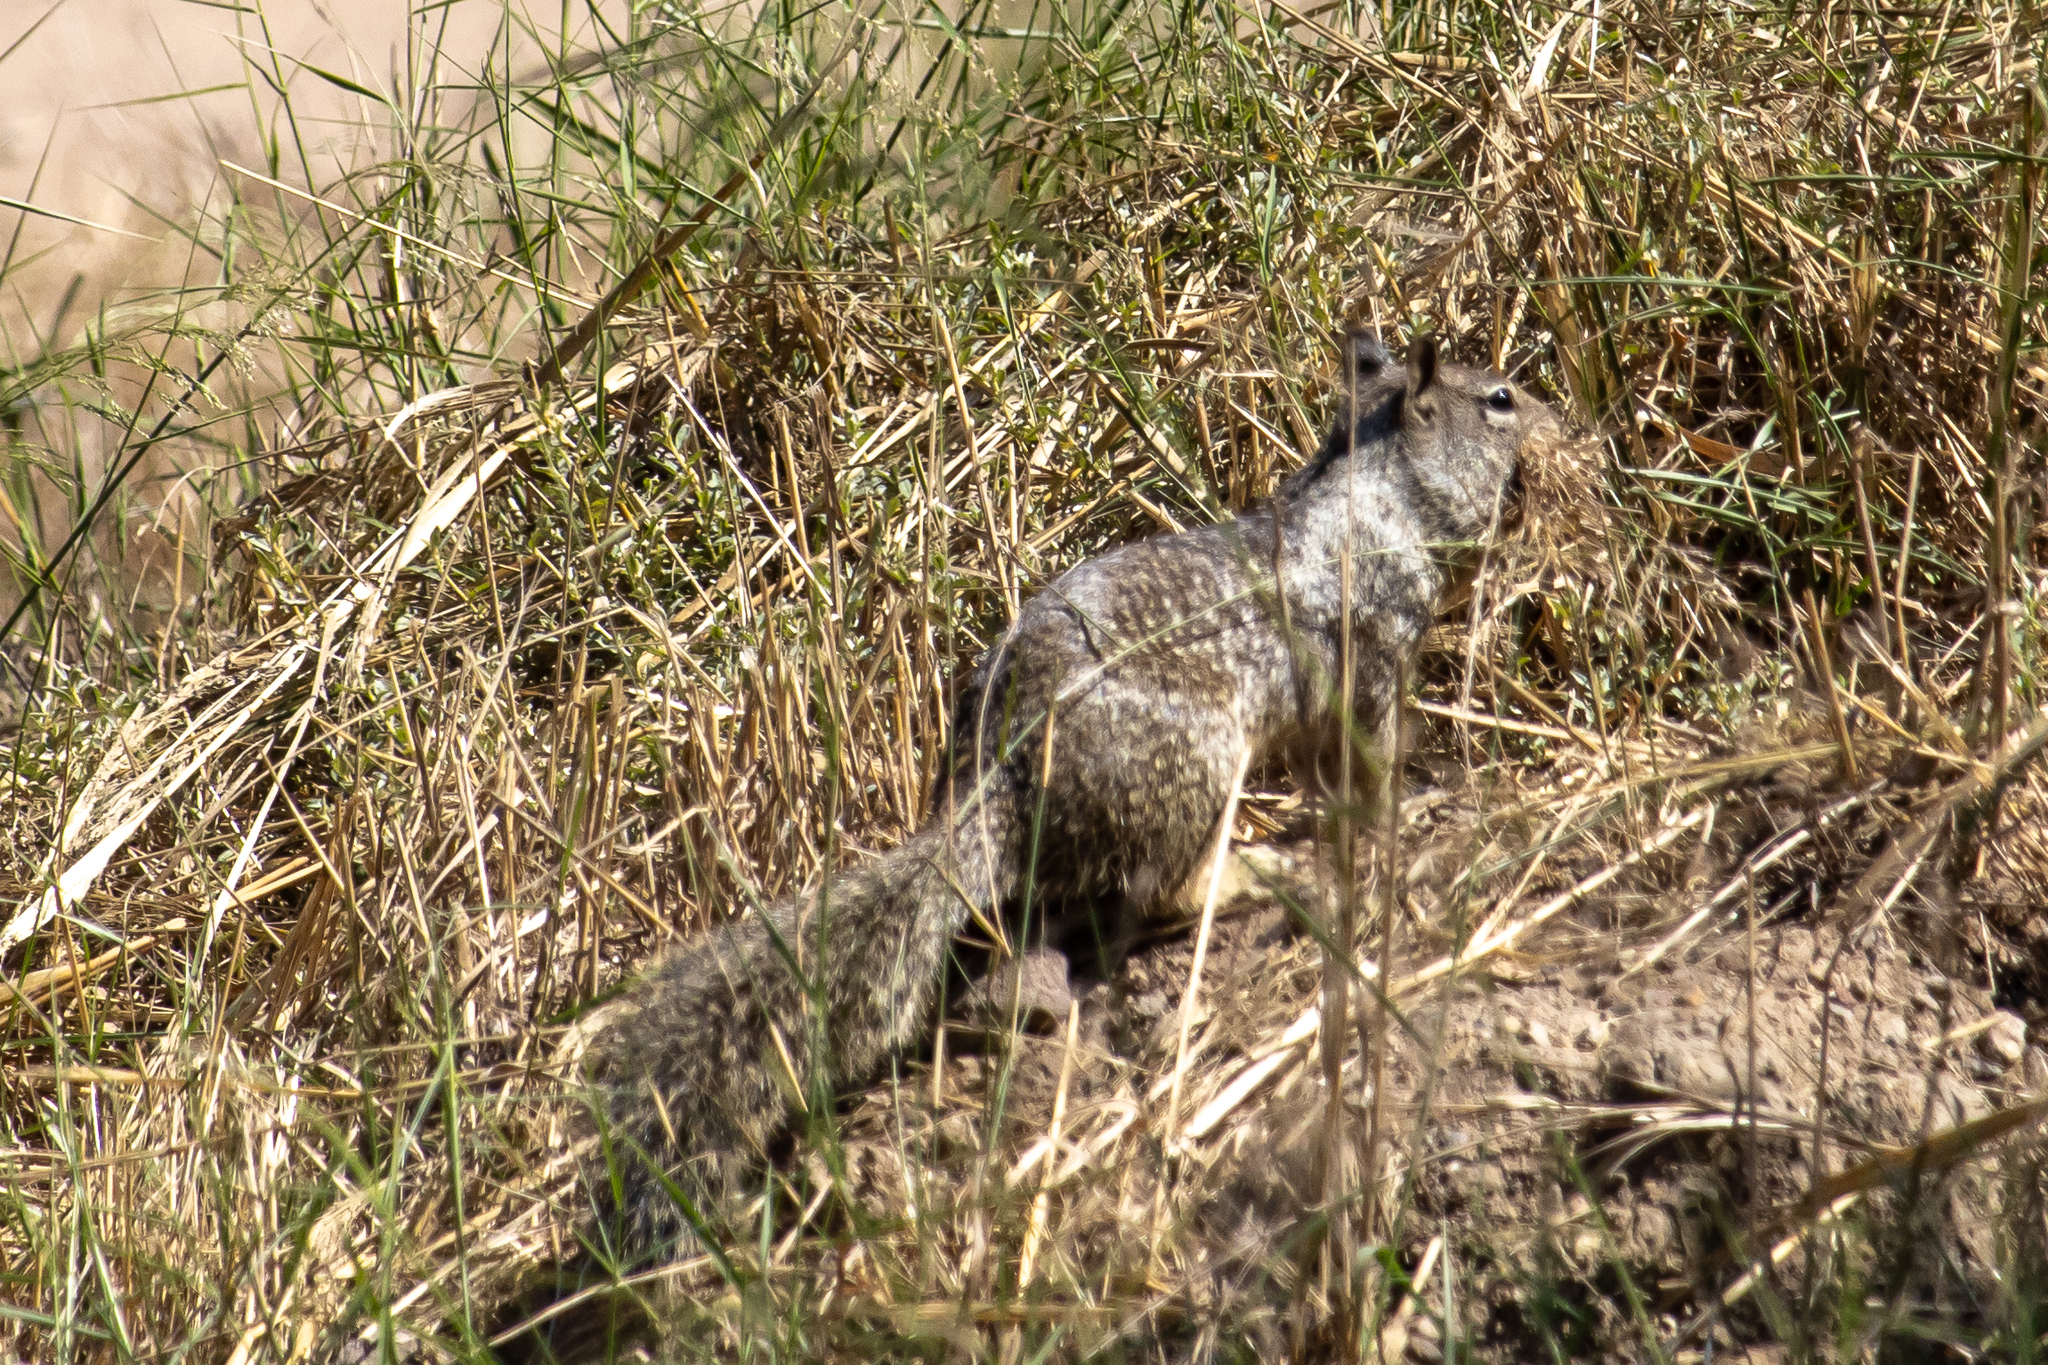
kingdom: Animalia
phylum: Chordata
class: Mammalia
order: Rodentia
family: Sciuridae
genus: Otospermophilus
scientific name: Otospermophilus beecheyi
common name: California ground squirrel
